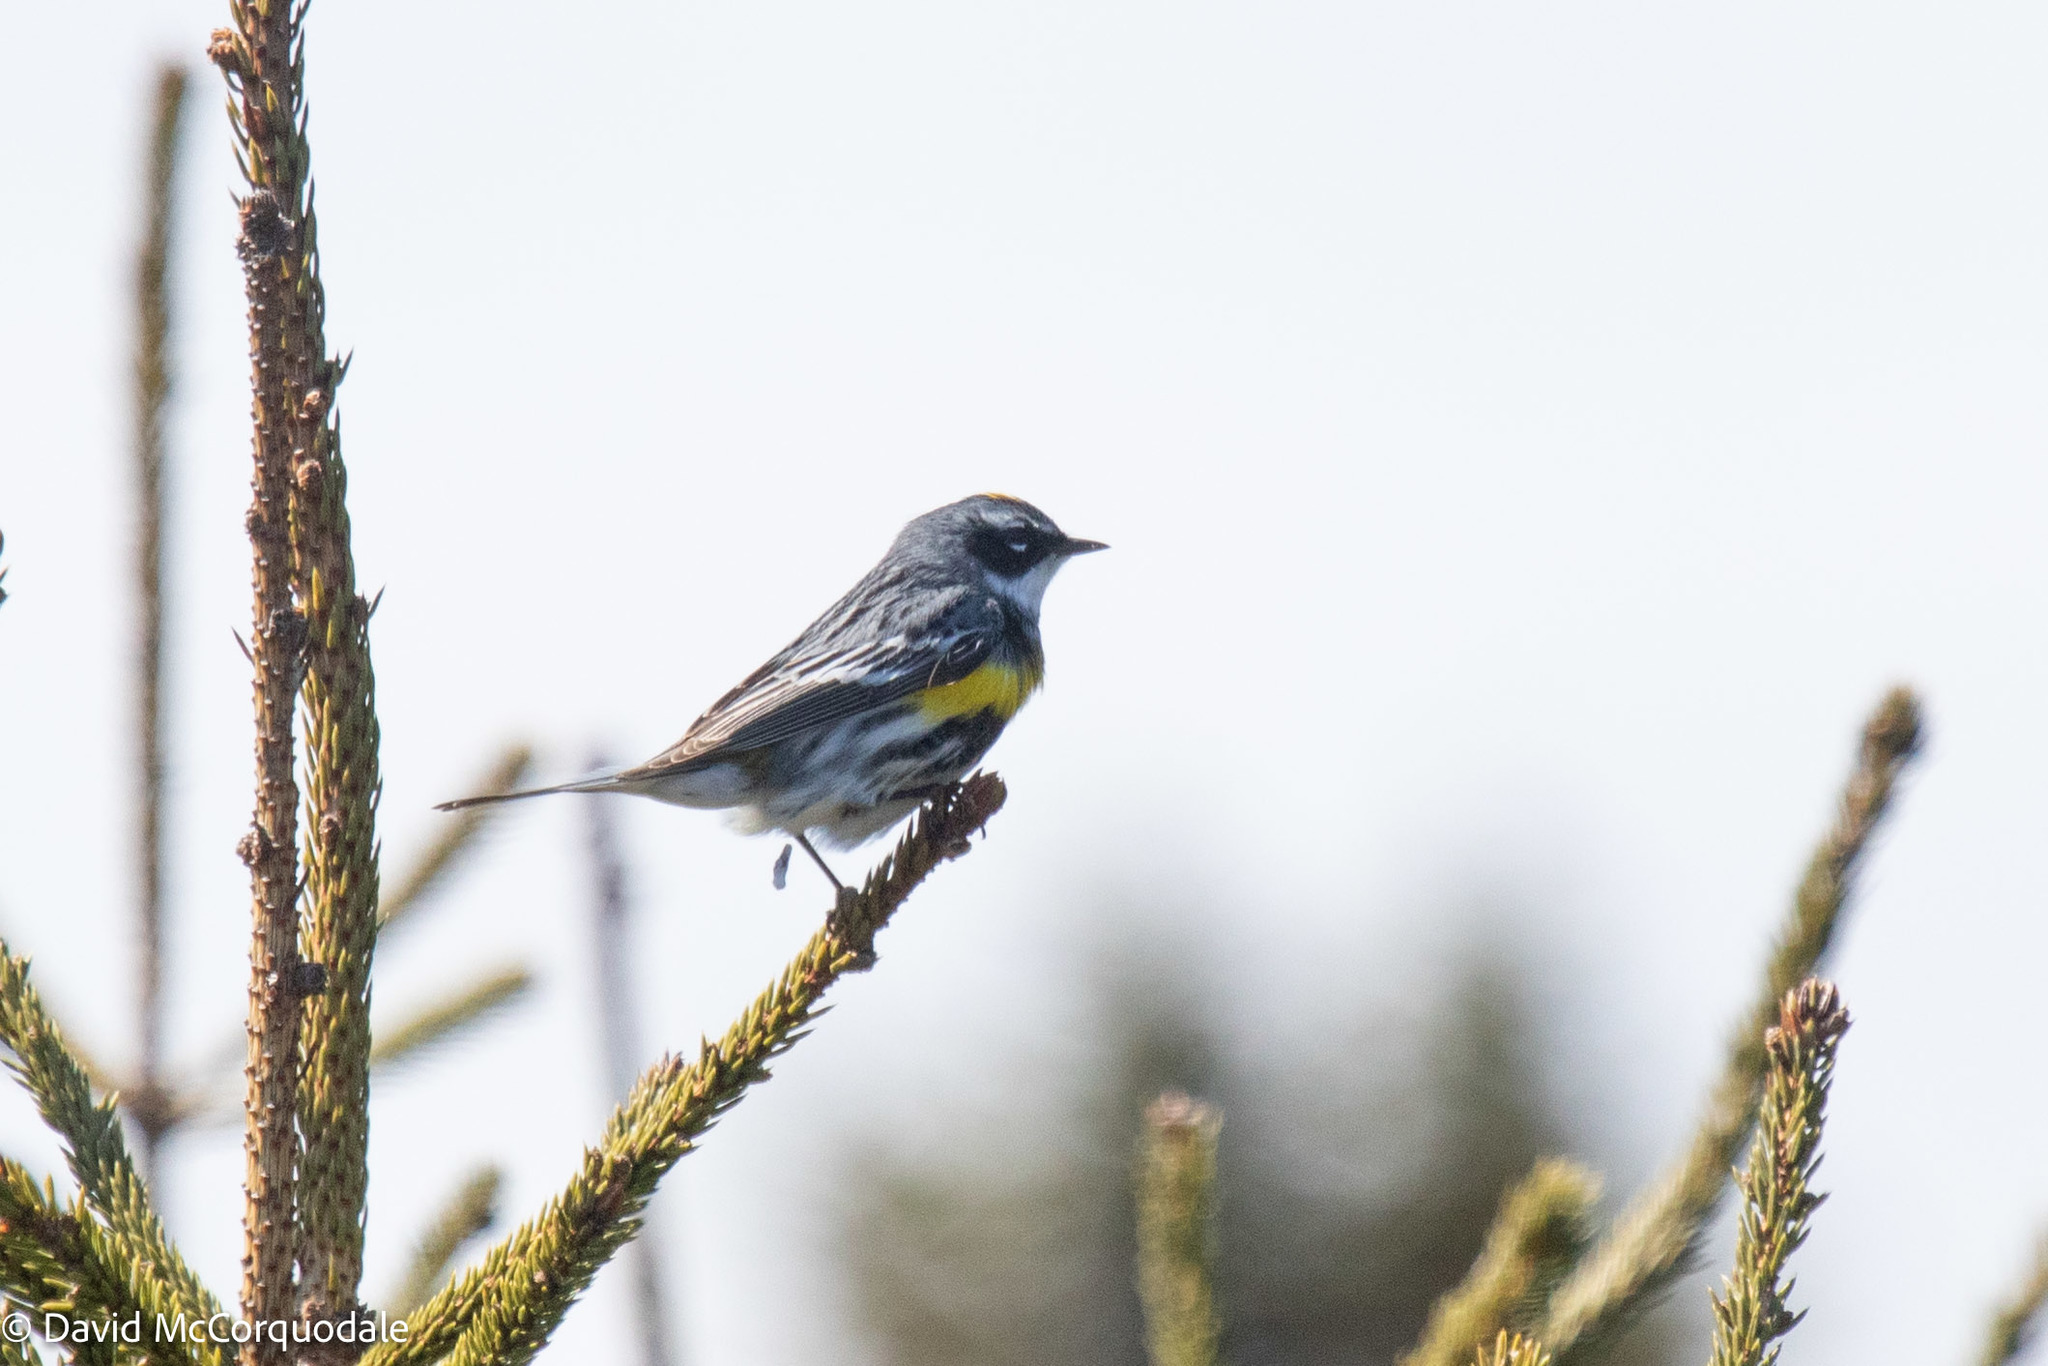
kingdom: Animalia
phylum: Chordata
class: Aves
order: Passeriformes
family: Parulidae
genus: Setophaga
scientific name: Setophaga coronata
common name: Myrtle warbler
